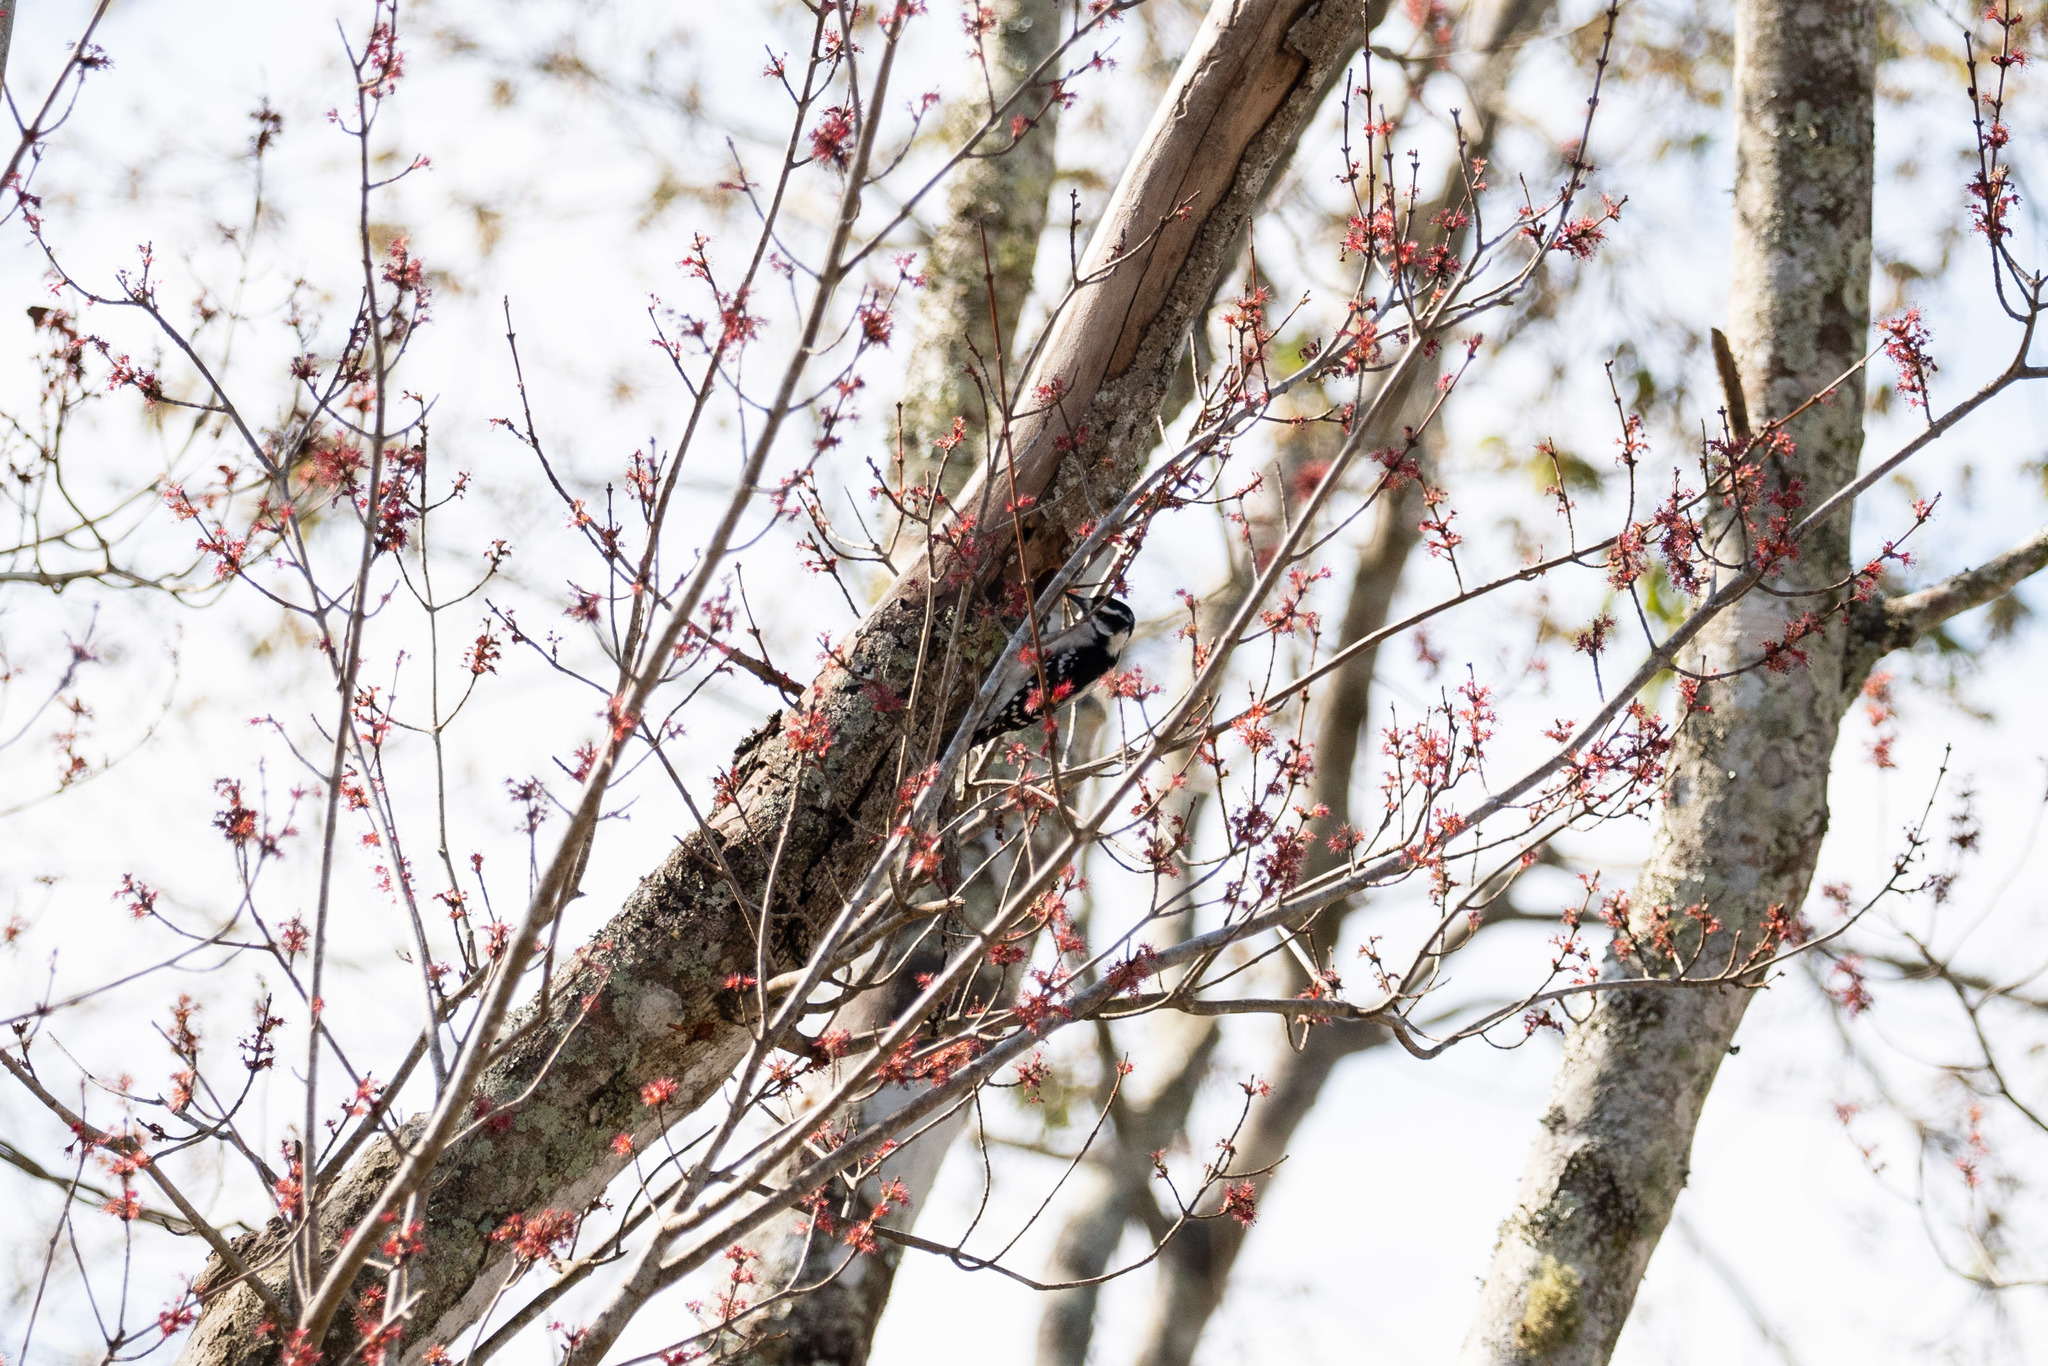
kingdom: Animalia
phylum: Chordata
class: Aves
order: Piciformes
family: Picidae
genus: Dryobates
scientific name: Dryobates pubescens
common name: Downy woodpecker
